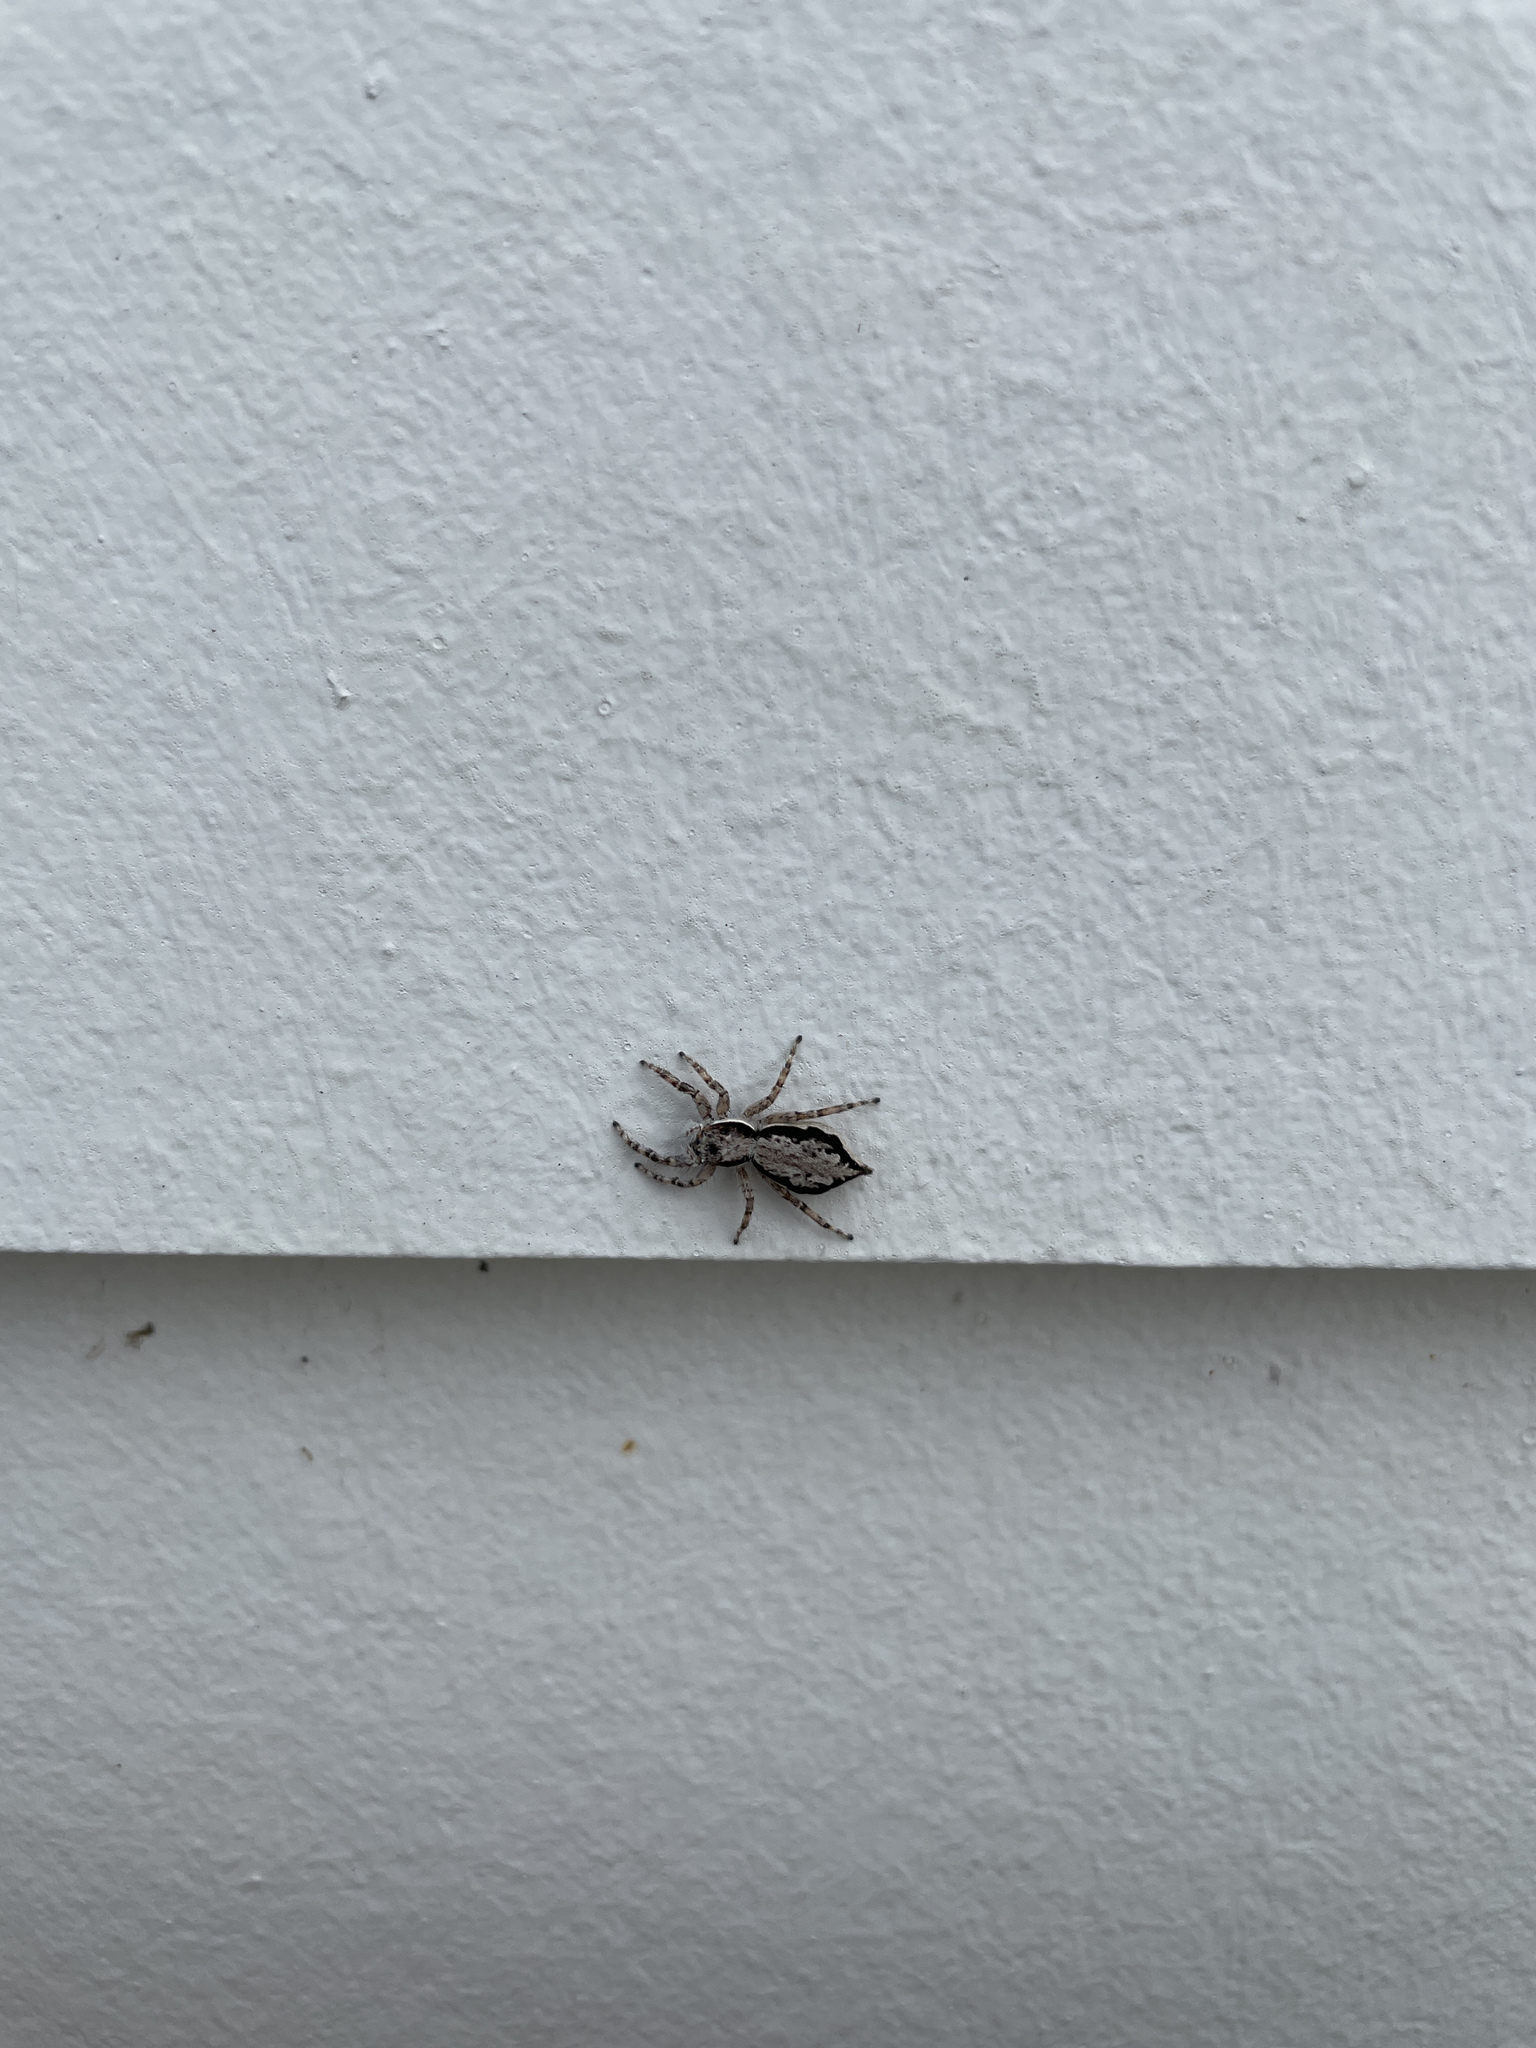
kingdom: Animalia
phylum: Arthropoda
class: Arachnida
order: Araneae
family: Salticidae
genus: Menemerus
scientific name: Menemerus bivittatus
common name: Gray wall jumper
